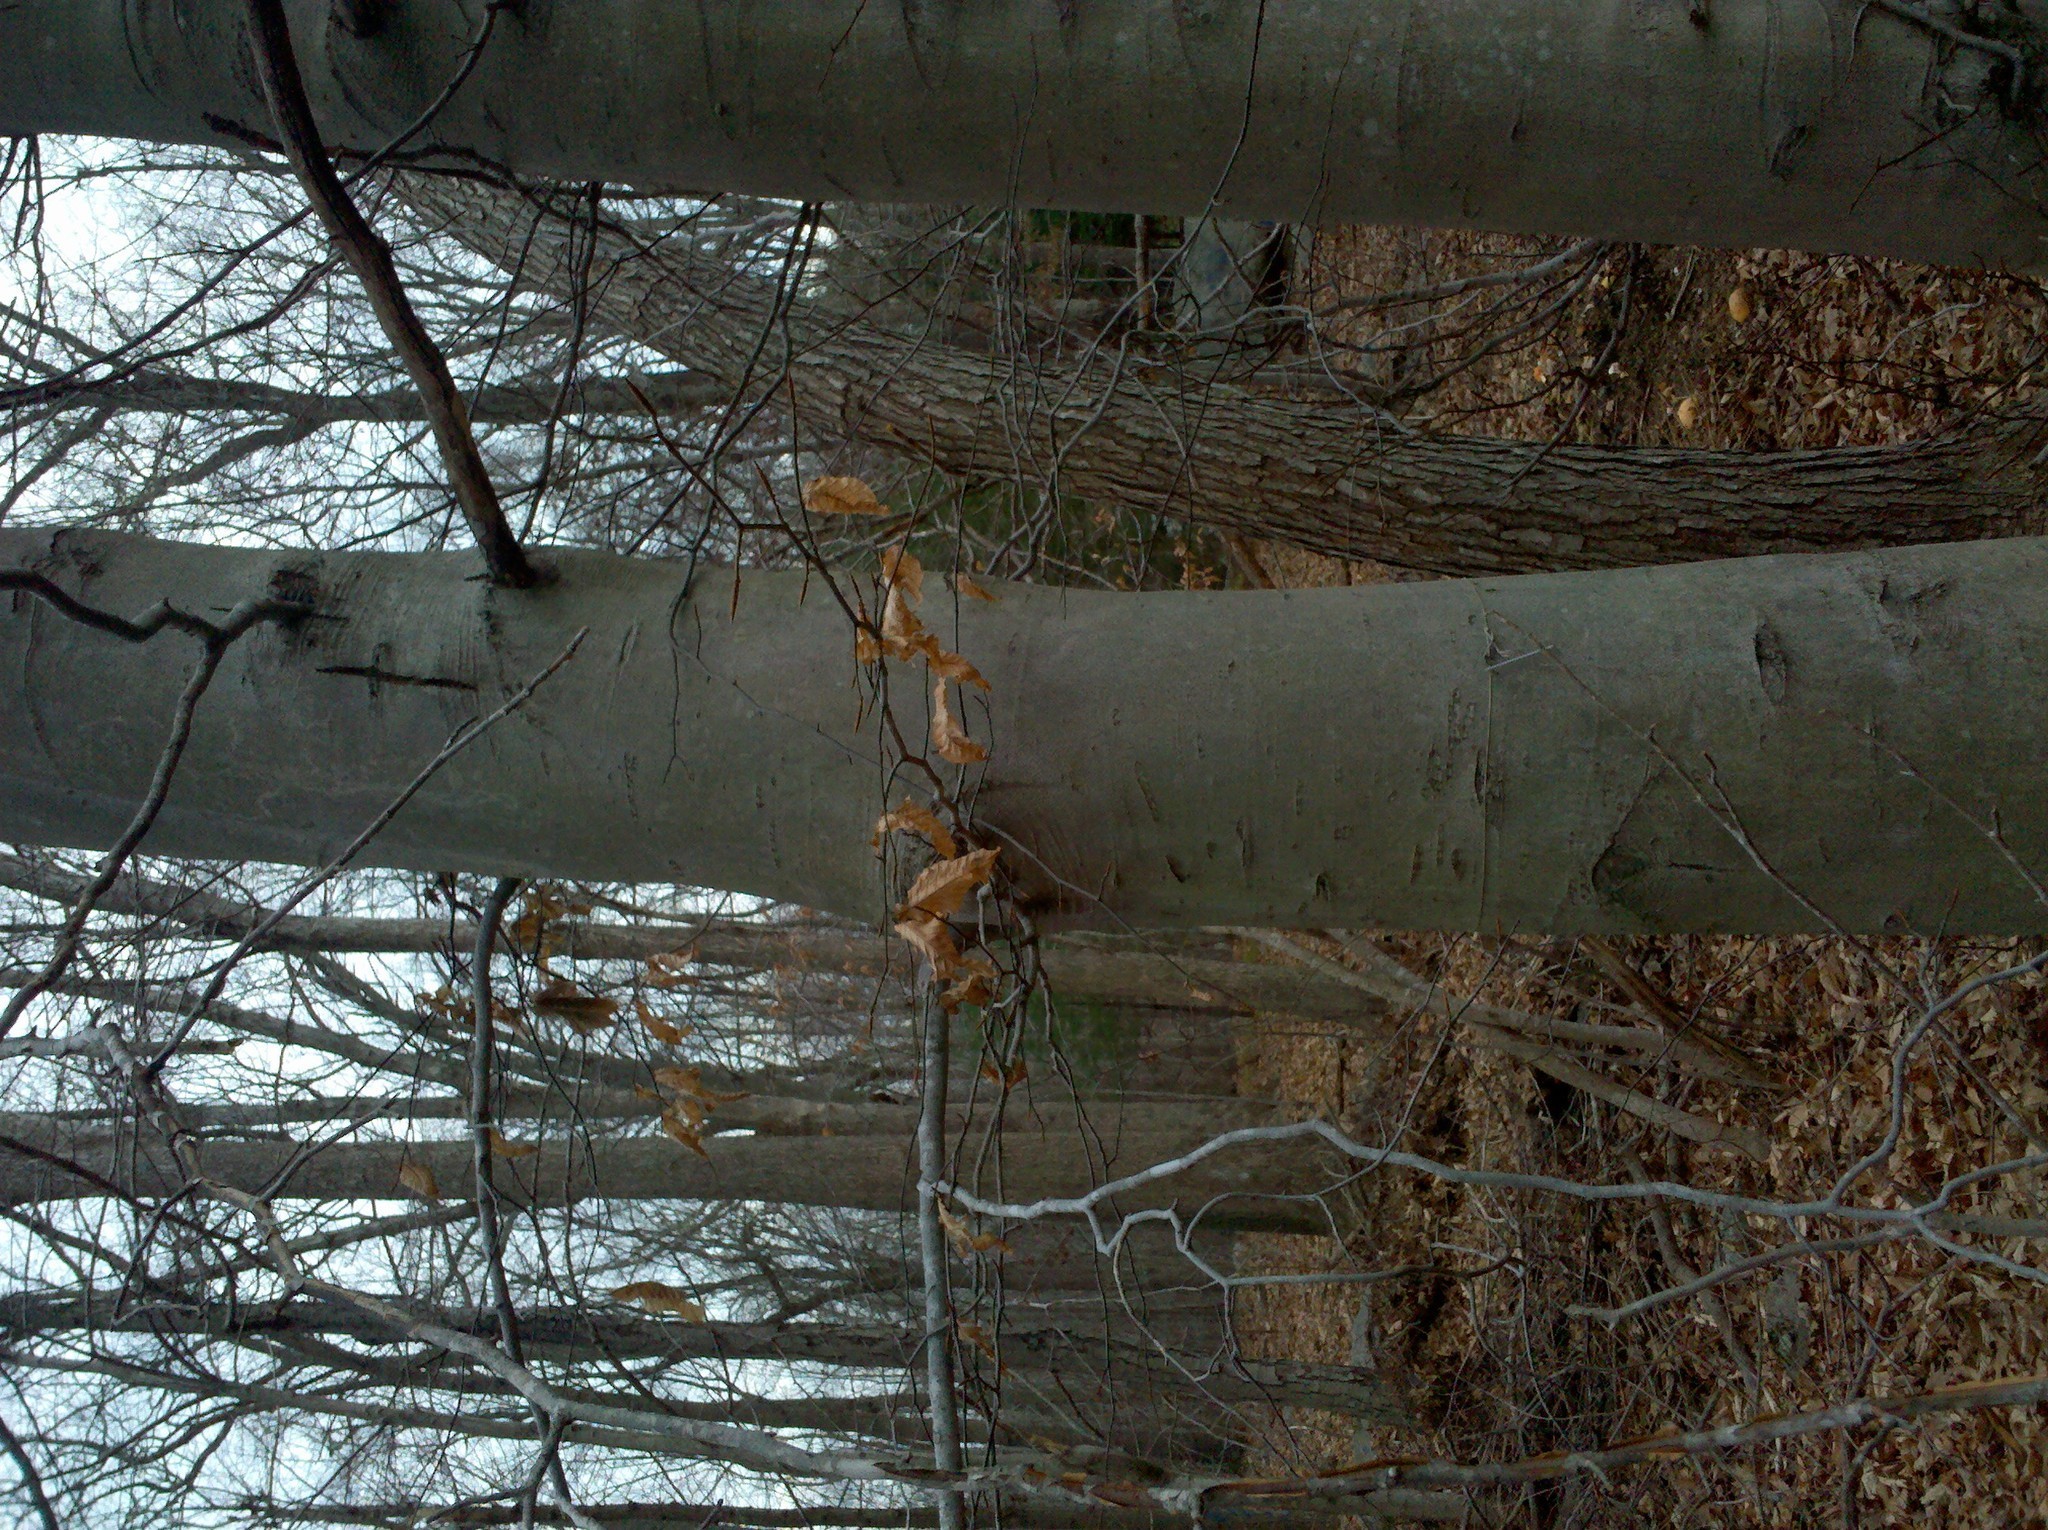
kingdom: Plantae
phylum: Tracheophyta
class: Magnoliopsida
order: Fagales
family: Fagaceae
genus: Fagus
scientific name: Fagus grandifolia
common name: American beech
